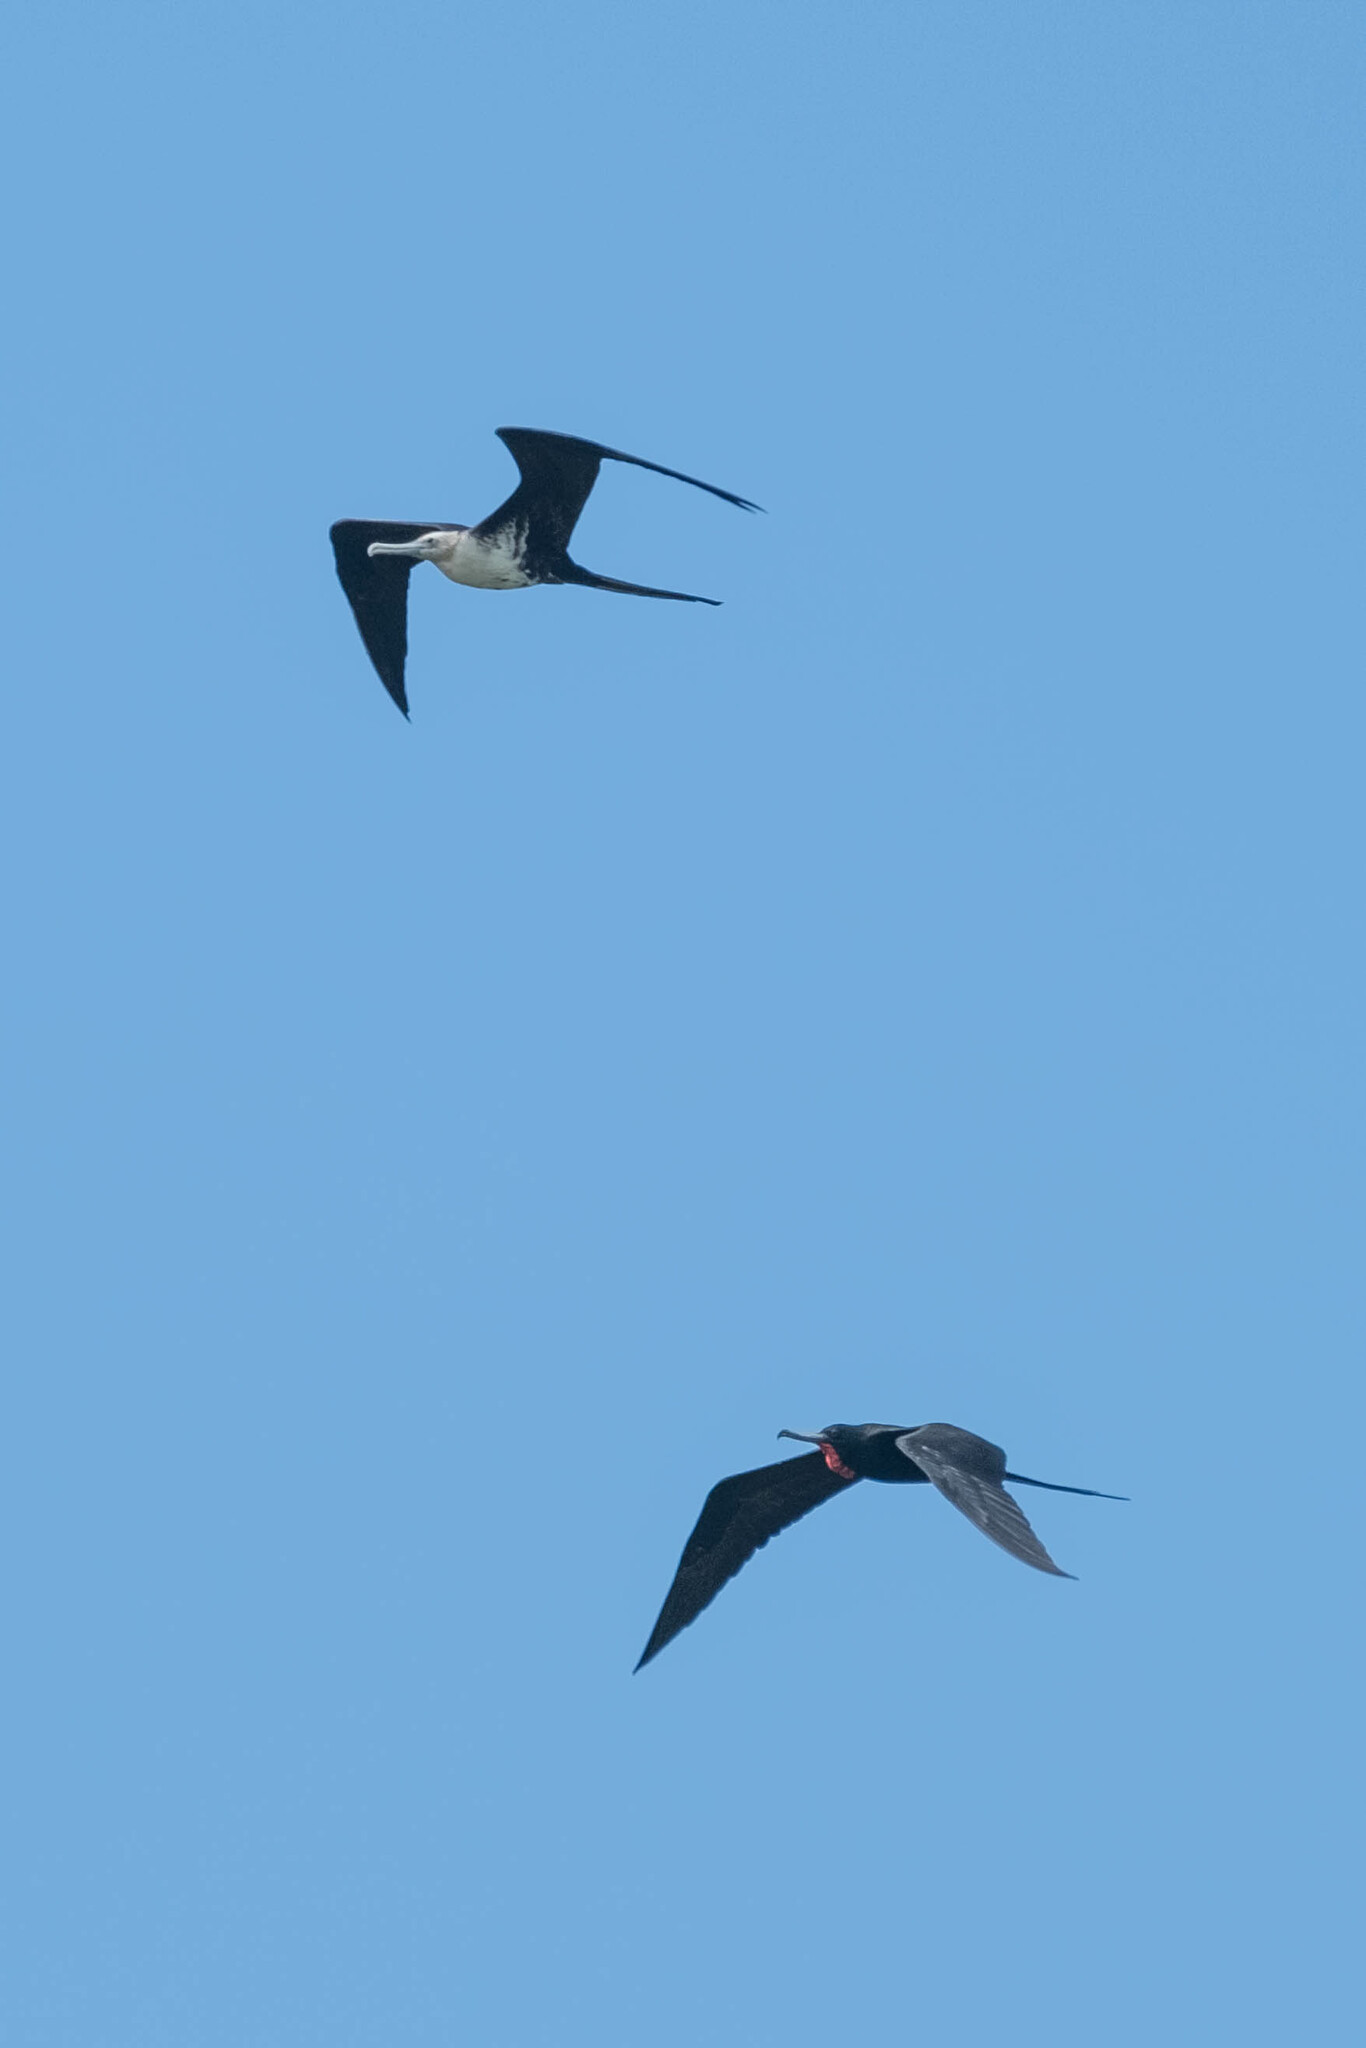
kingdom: Animalia
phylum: Chordata
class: Aves
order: Suliformes
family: Fregatidae
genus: Fregata
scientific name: Fregata magnificens
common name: Magnificent frigatebird
